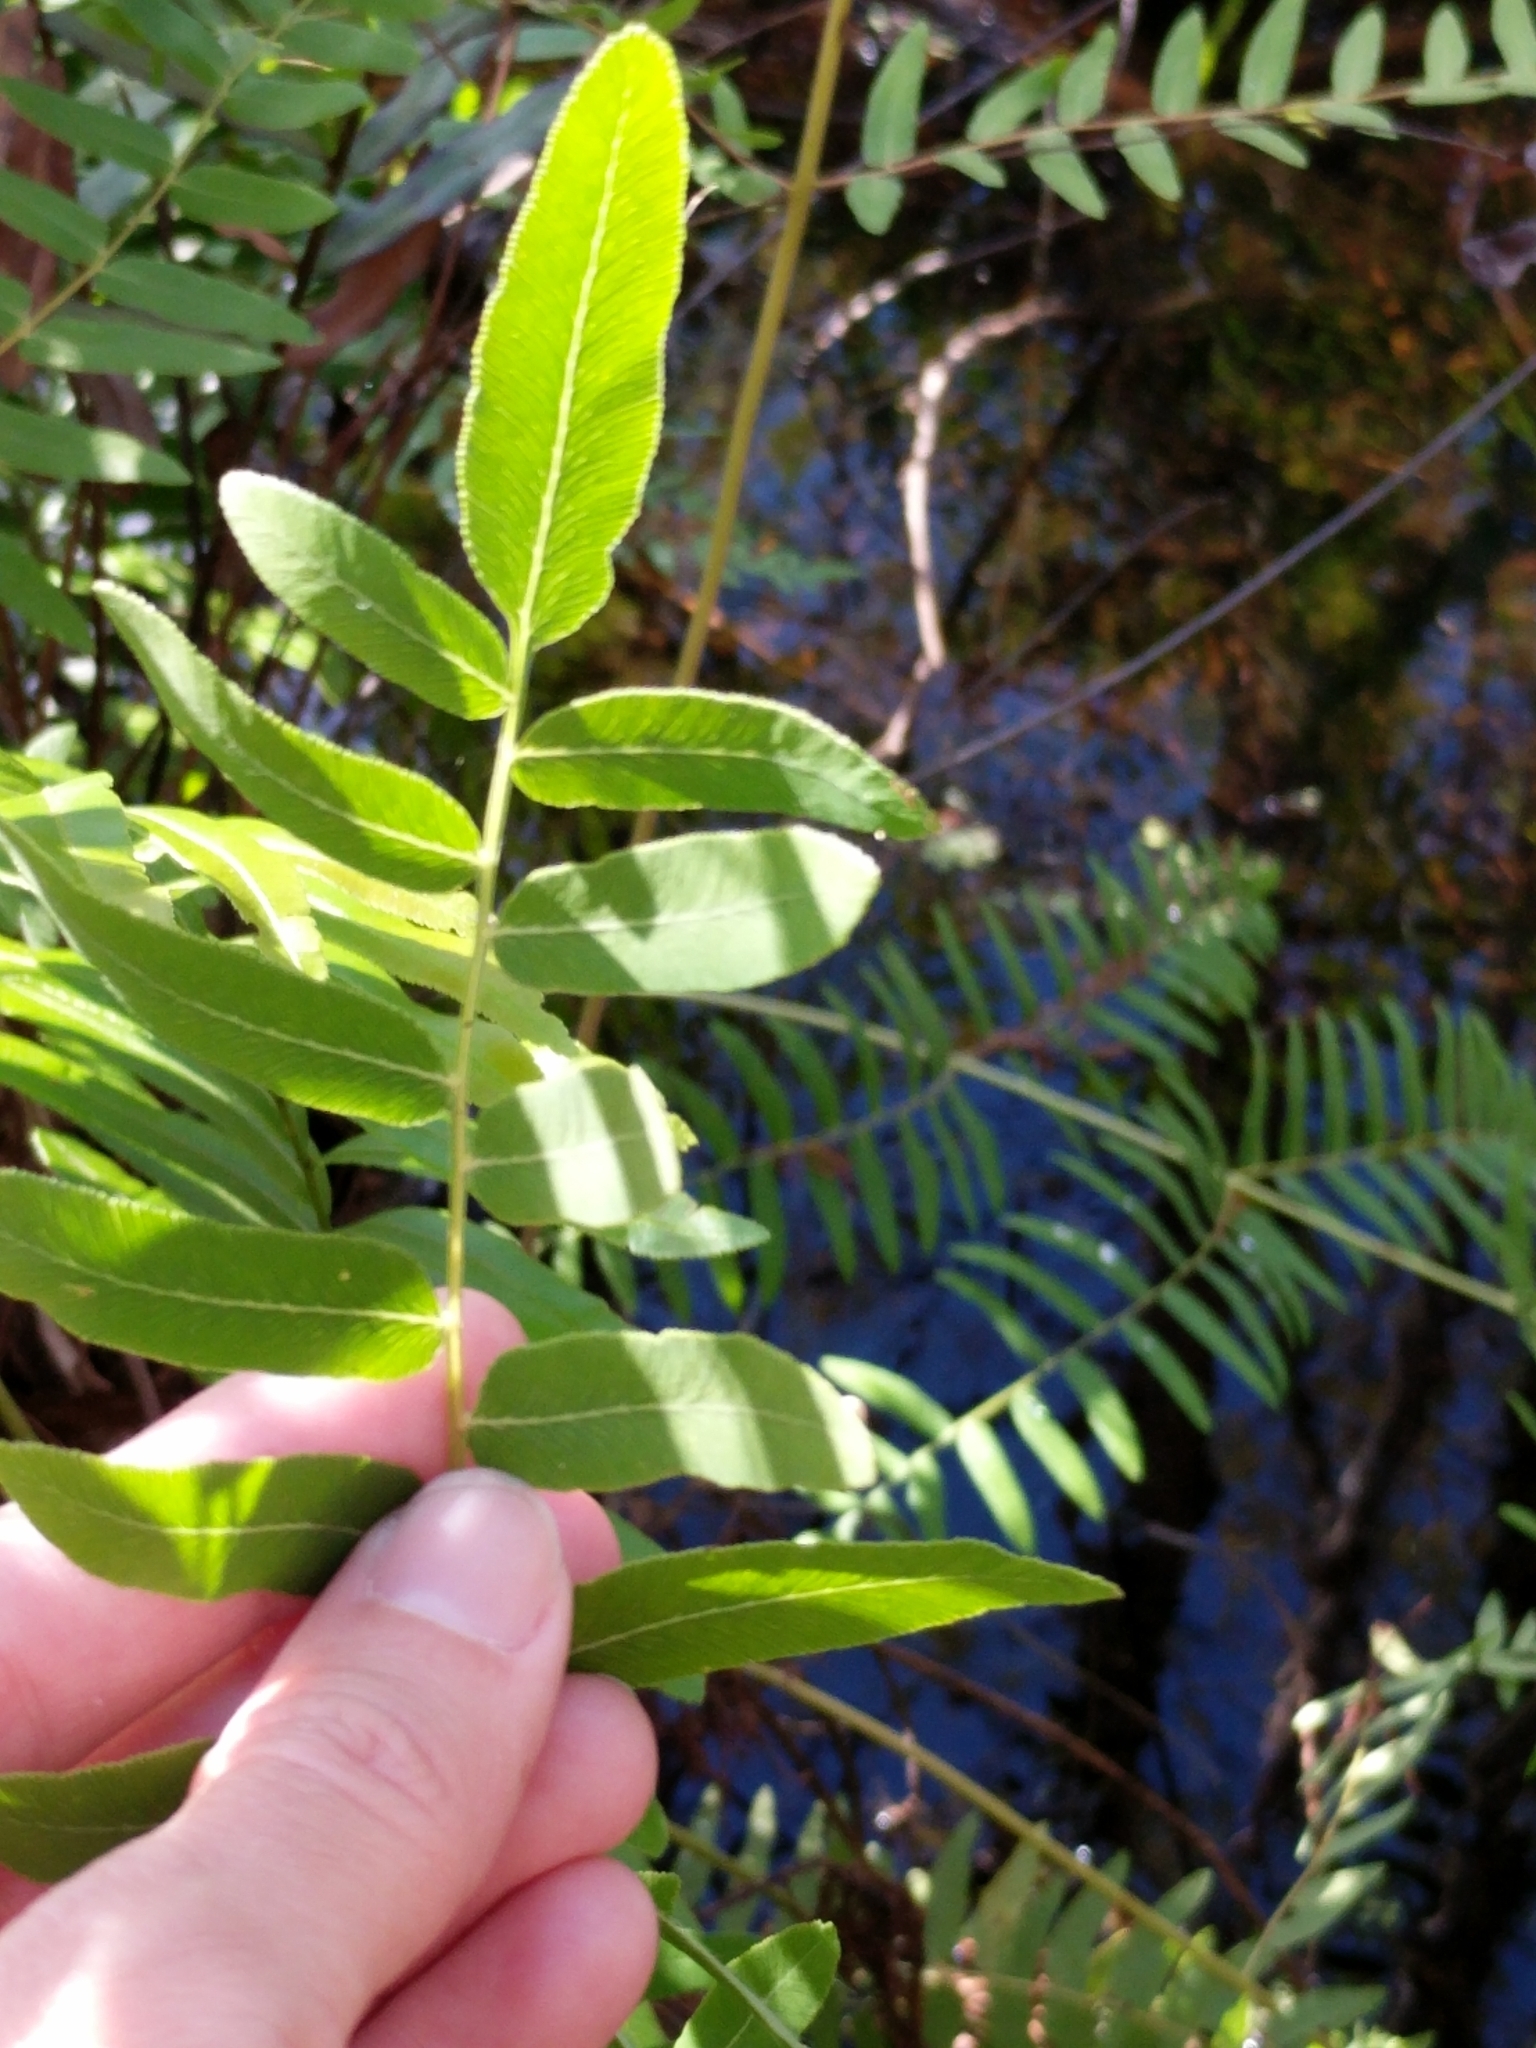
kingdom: Plantae
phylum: Tracheophyta
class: Polypodiopsida
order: Osmundales
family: Osmundaceae
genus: Osmunda
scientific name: Osmunda spectabilis
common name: American royal fern
